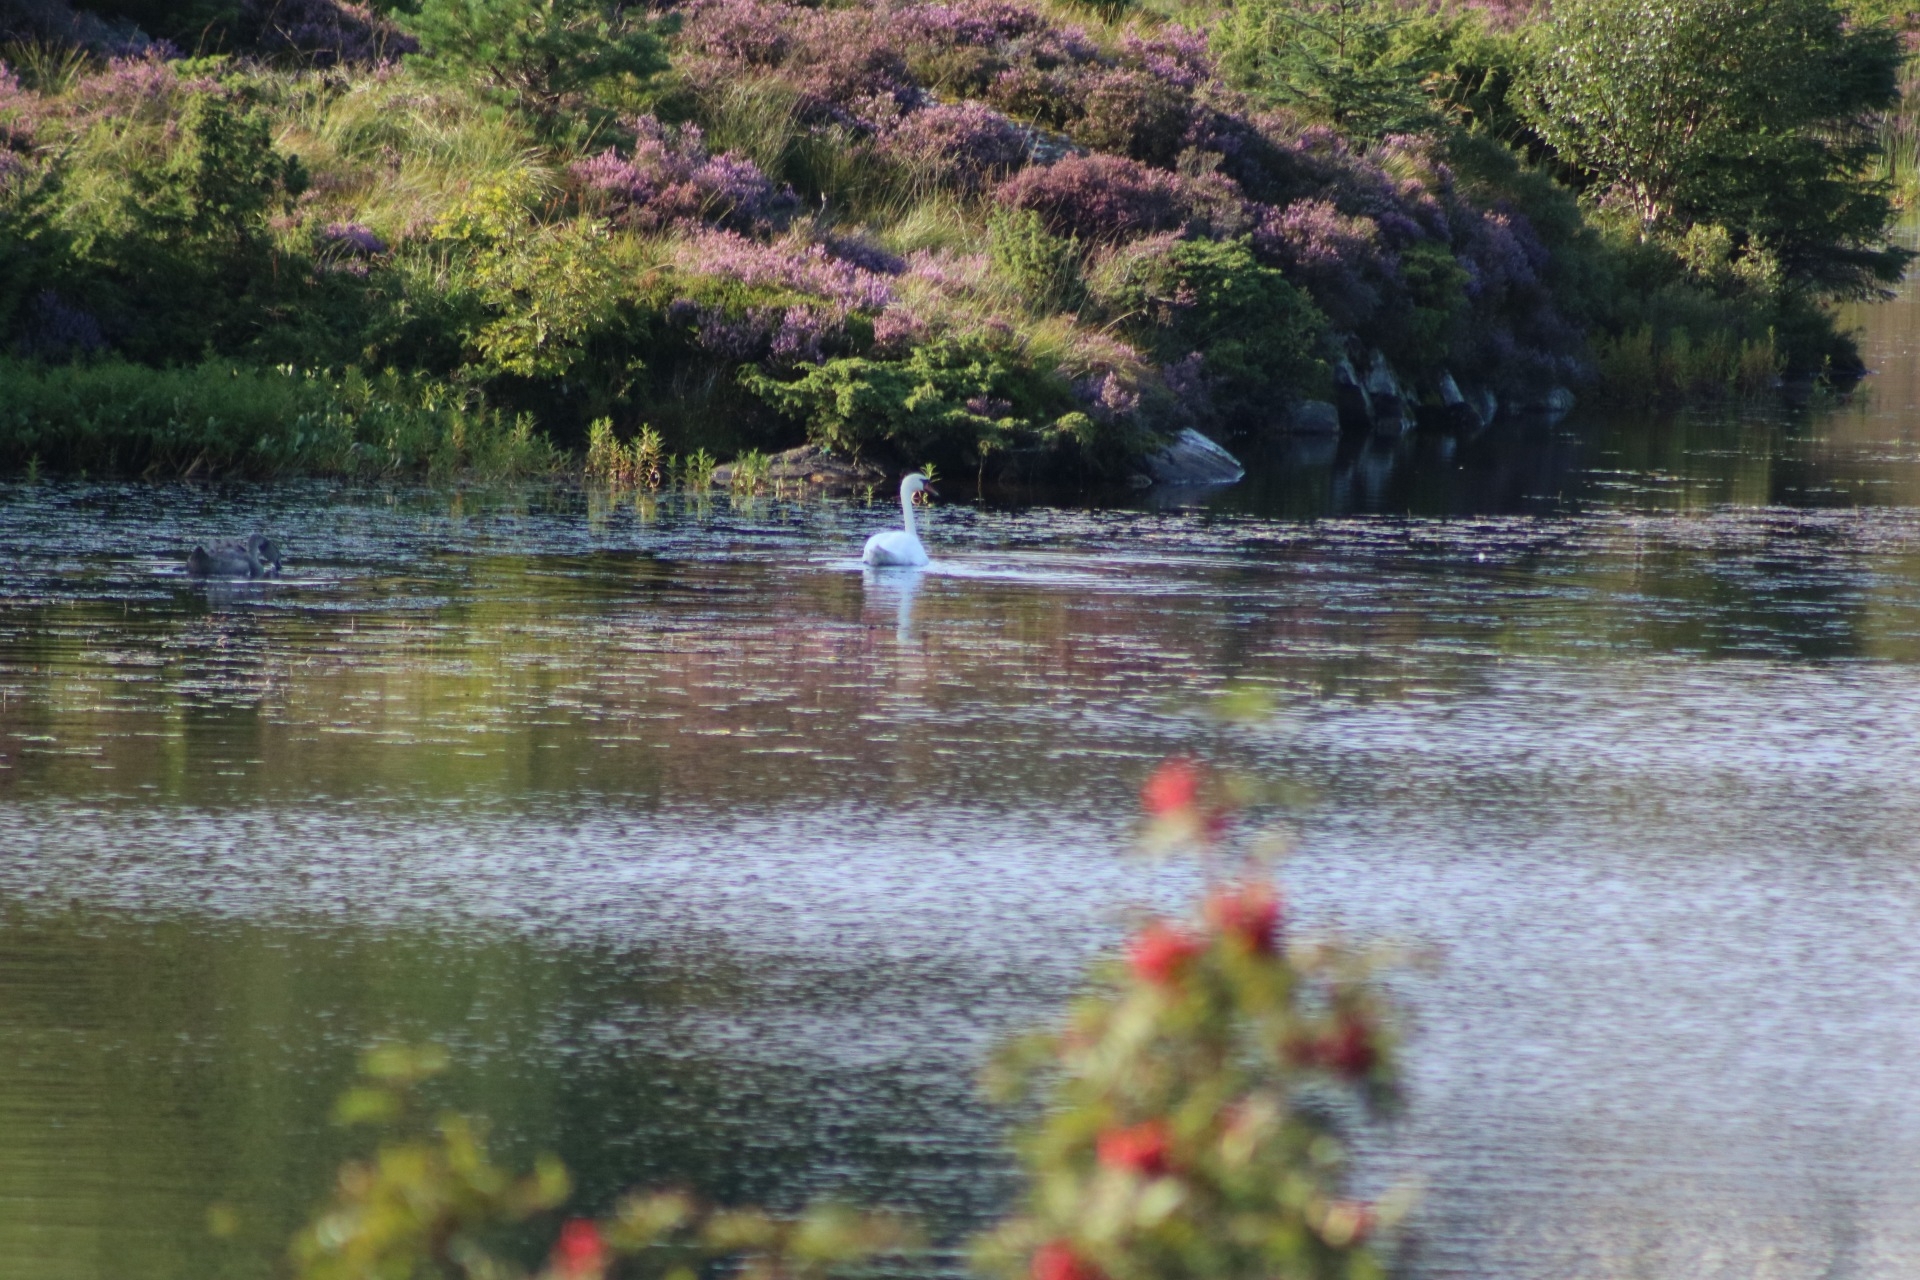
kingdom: Animalia
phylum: Chordata
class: Aves
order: Anseriformes
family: Anatidae
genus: Cygnus
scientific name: Cygnus olor
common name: Mute swan
